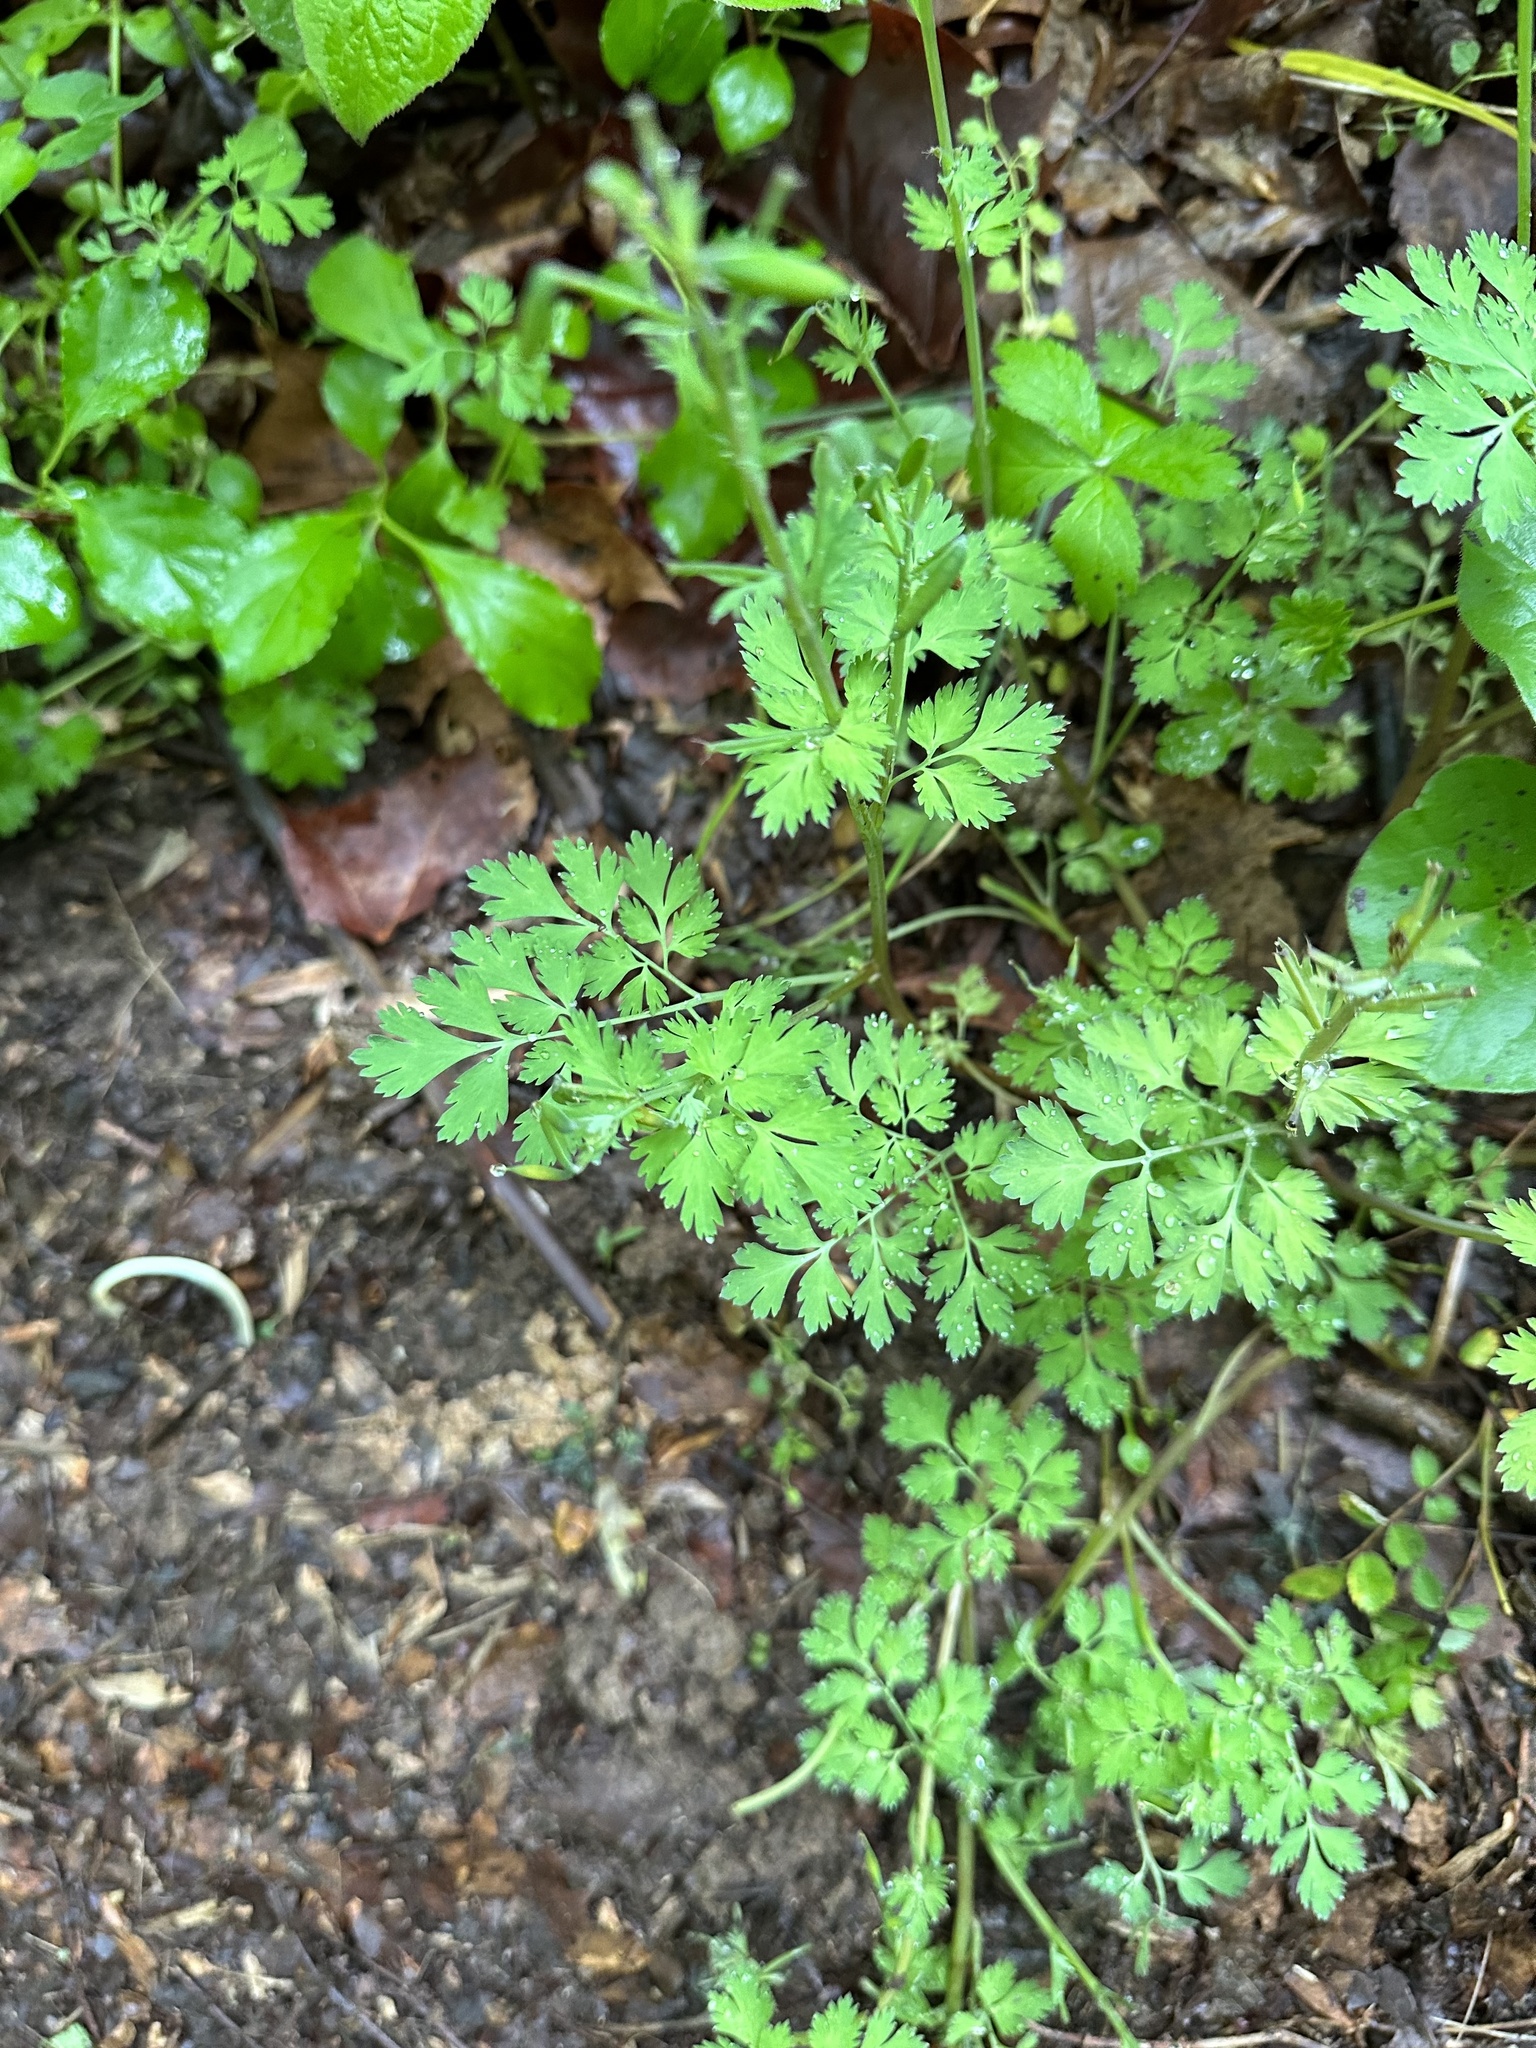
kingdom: Plantae
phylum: Tracheophyta
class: Magnoliopsida
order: Ranunculales
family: Papaveraceae
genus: Corydalis
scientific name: Corydalis incisa
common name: Incised fumewort
